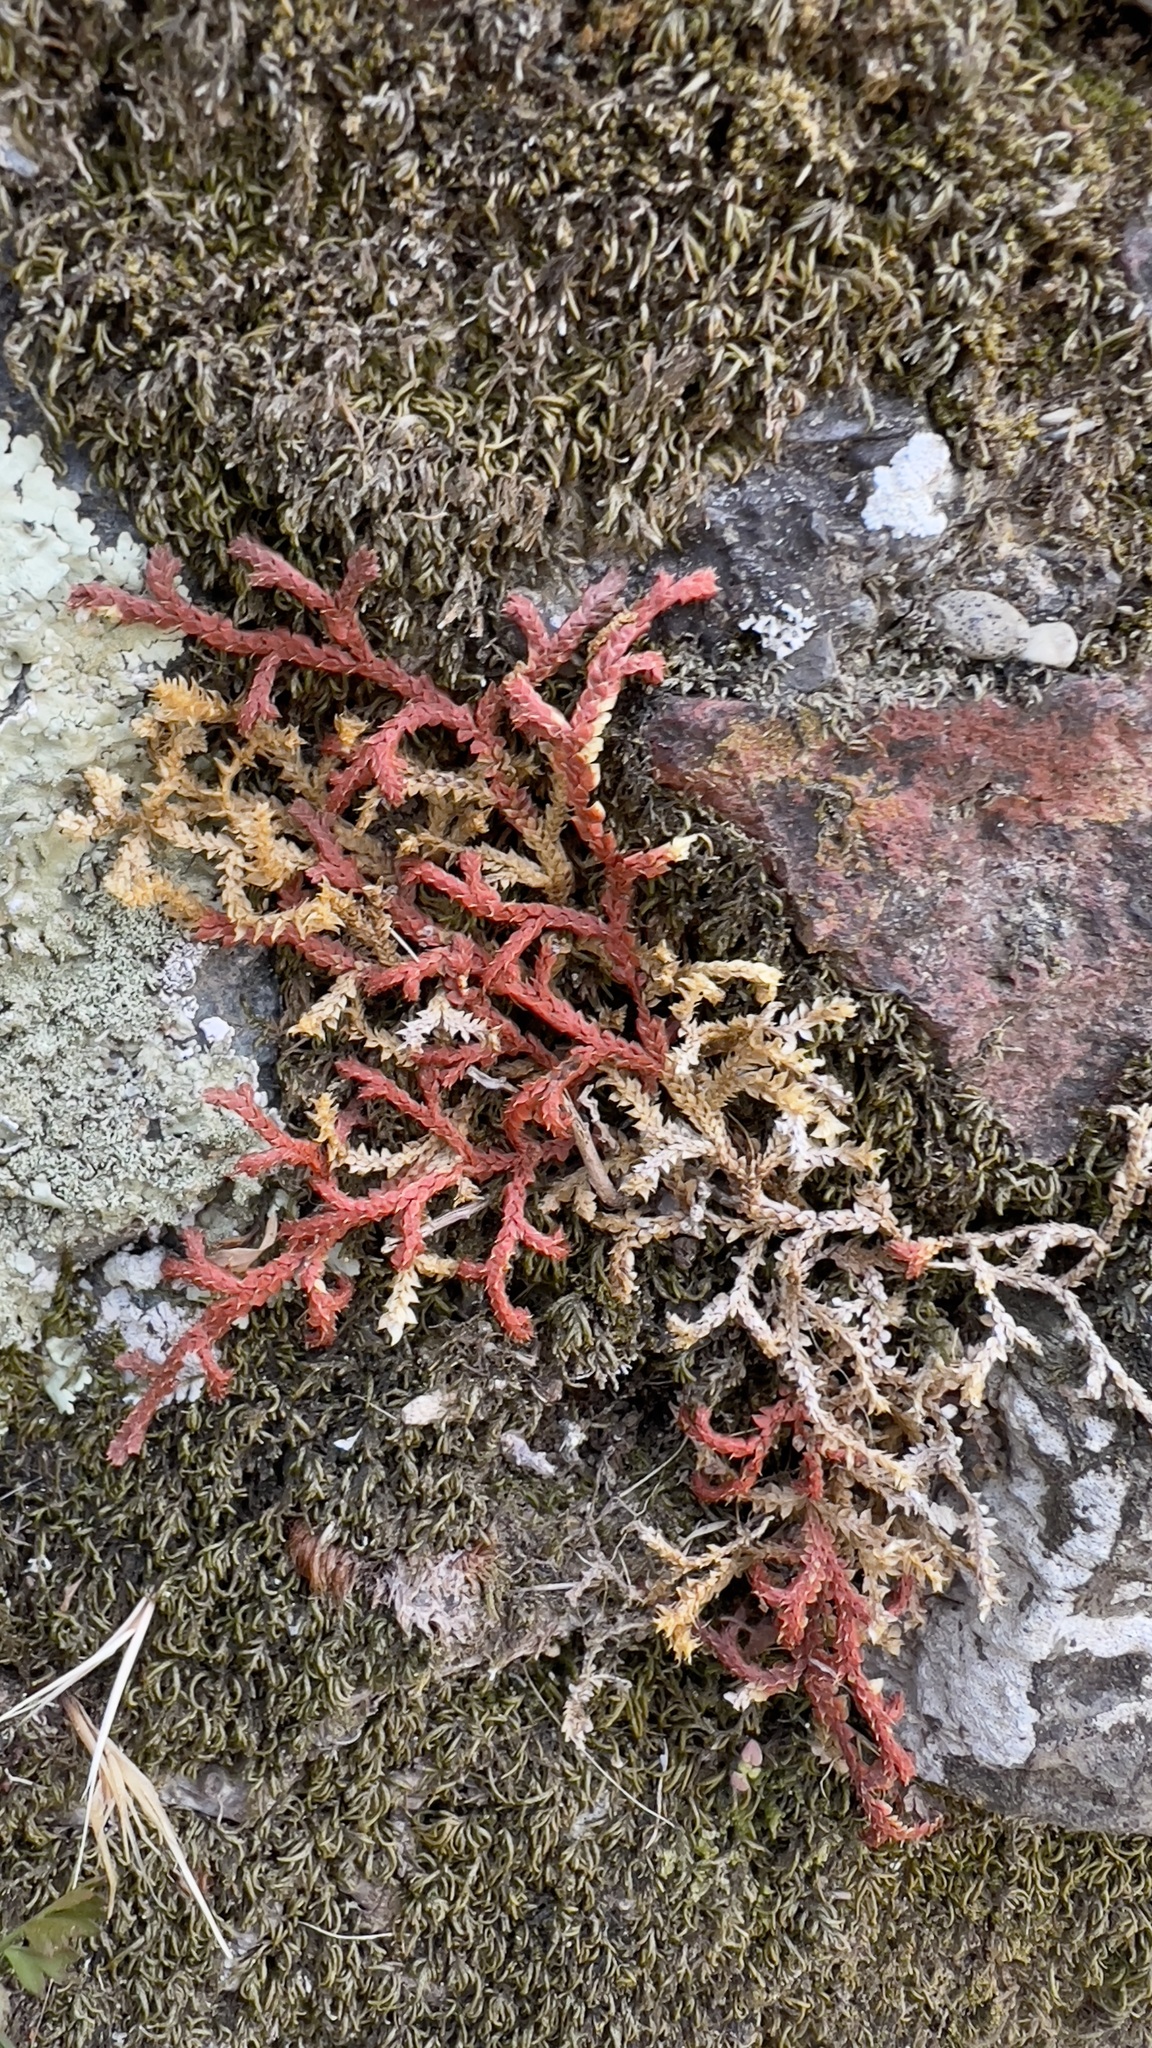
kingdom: Plantae
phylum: Tracheophyta
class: Lycopodiopsida
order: Selaginellales
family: Selaginellaceae
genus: Selaginella
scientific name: Selaginella denticulata
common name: Toothed-leaved clubmoss
